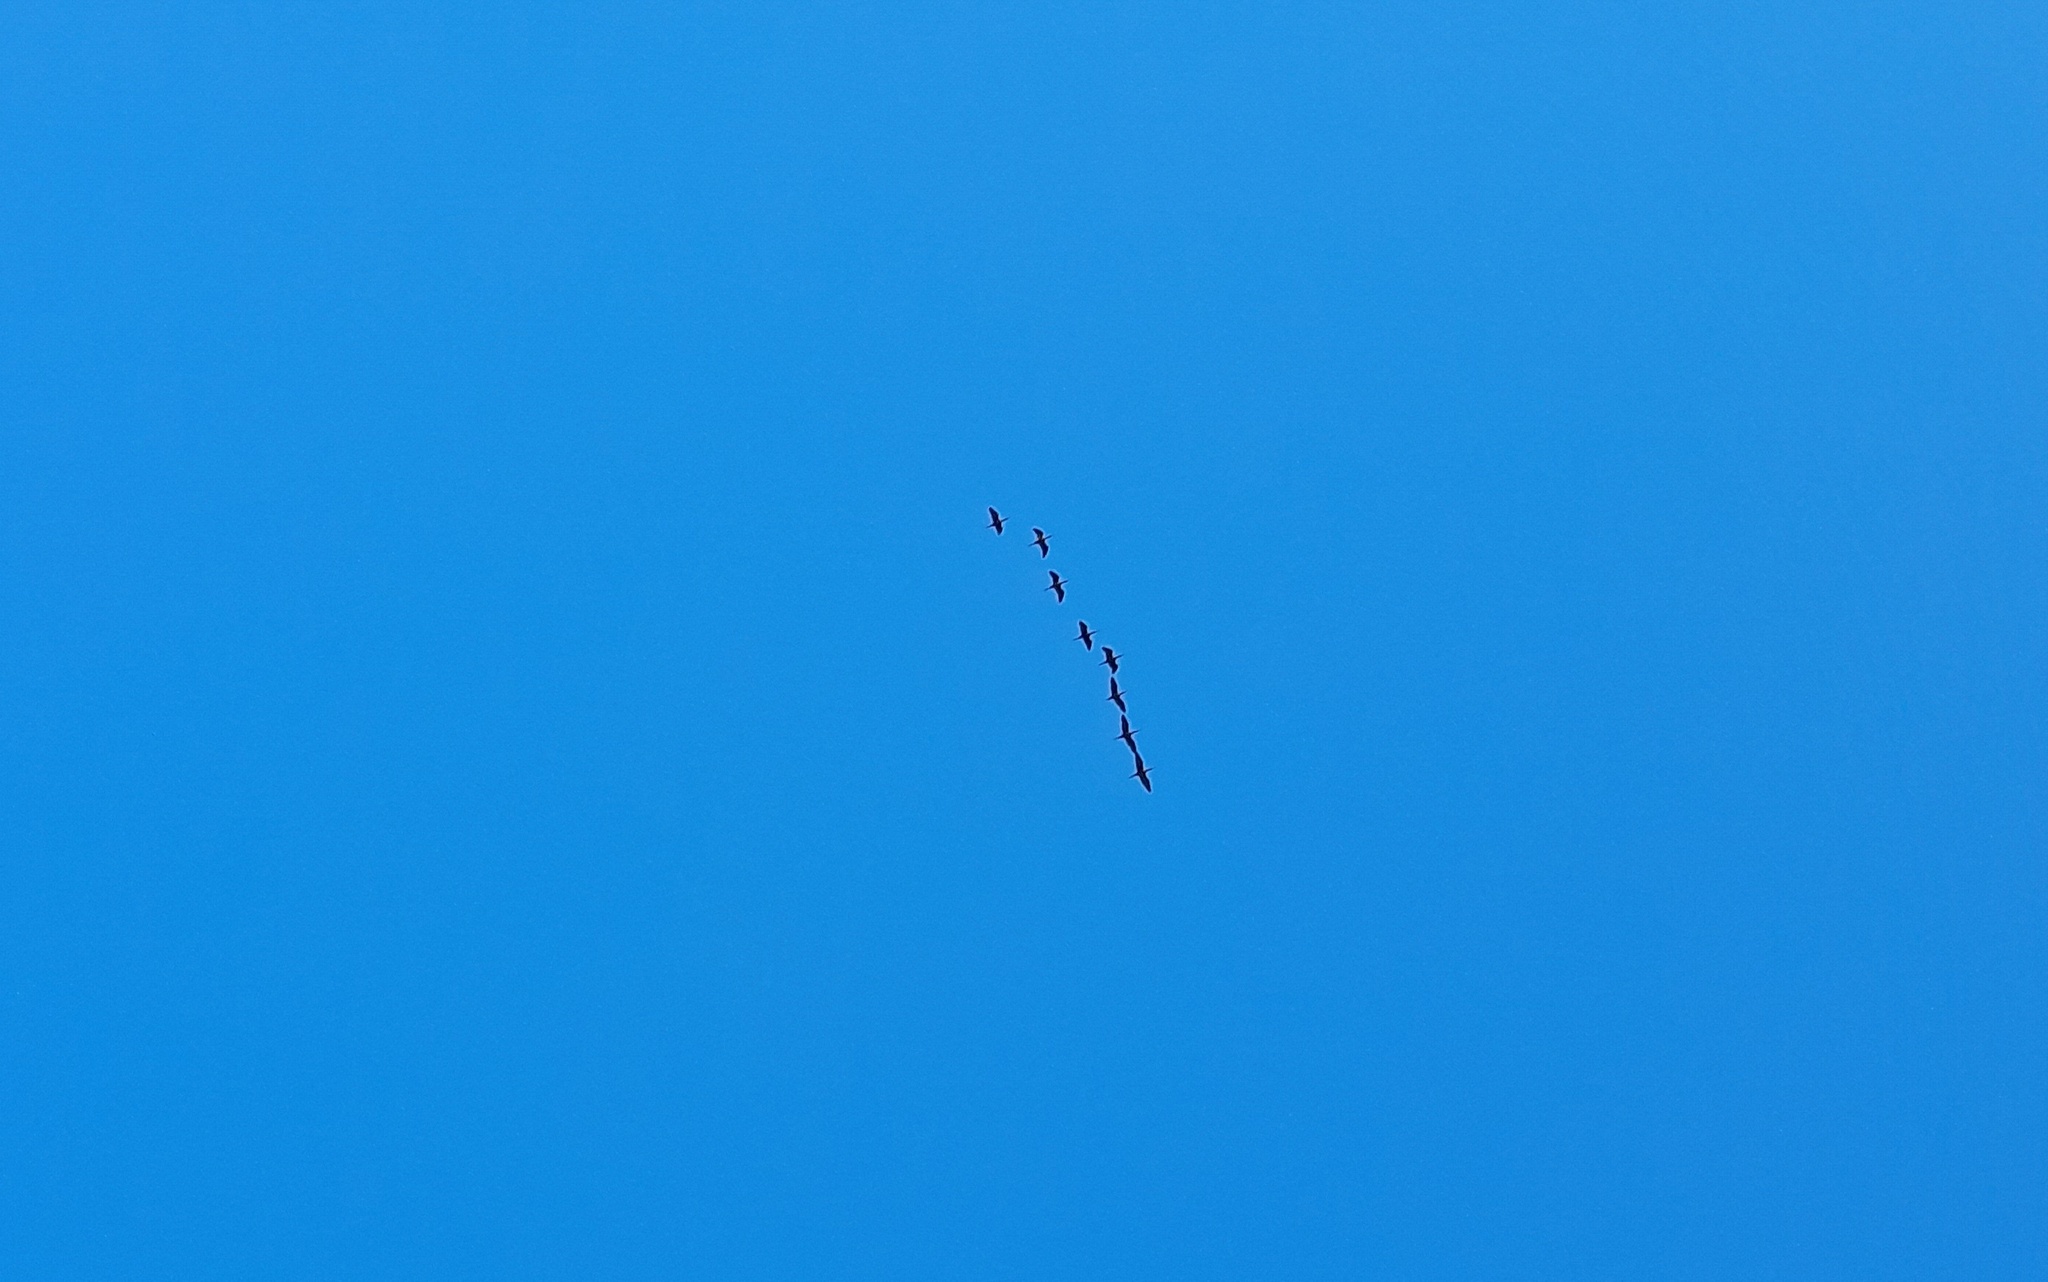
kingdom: Animalia
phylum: Chordata
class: Aves
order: Pelecaniformes
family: Threskiornithidae
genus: Plegadis
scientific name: Plegadis chihi
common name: White-faced ibis
